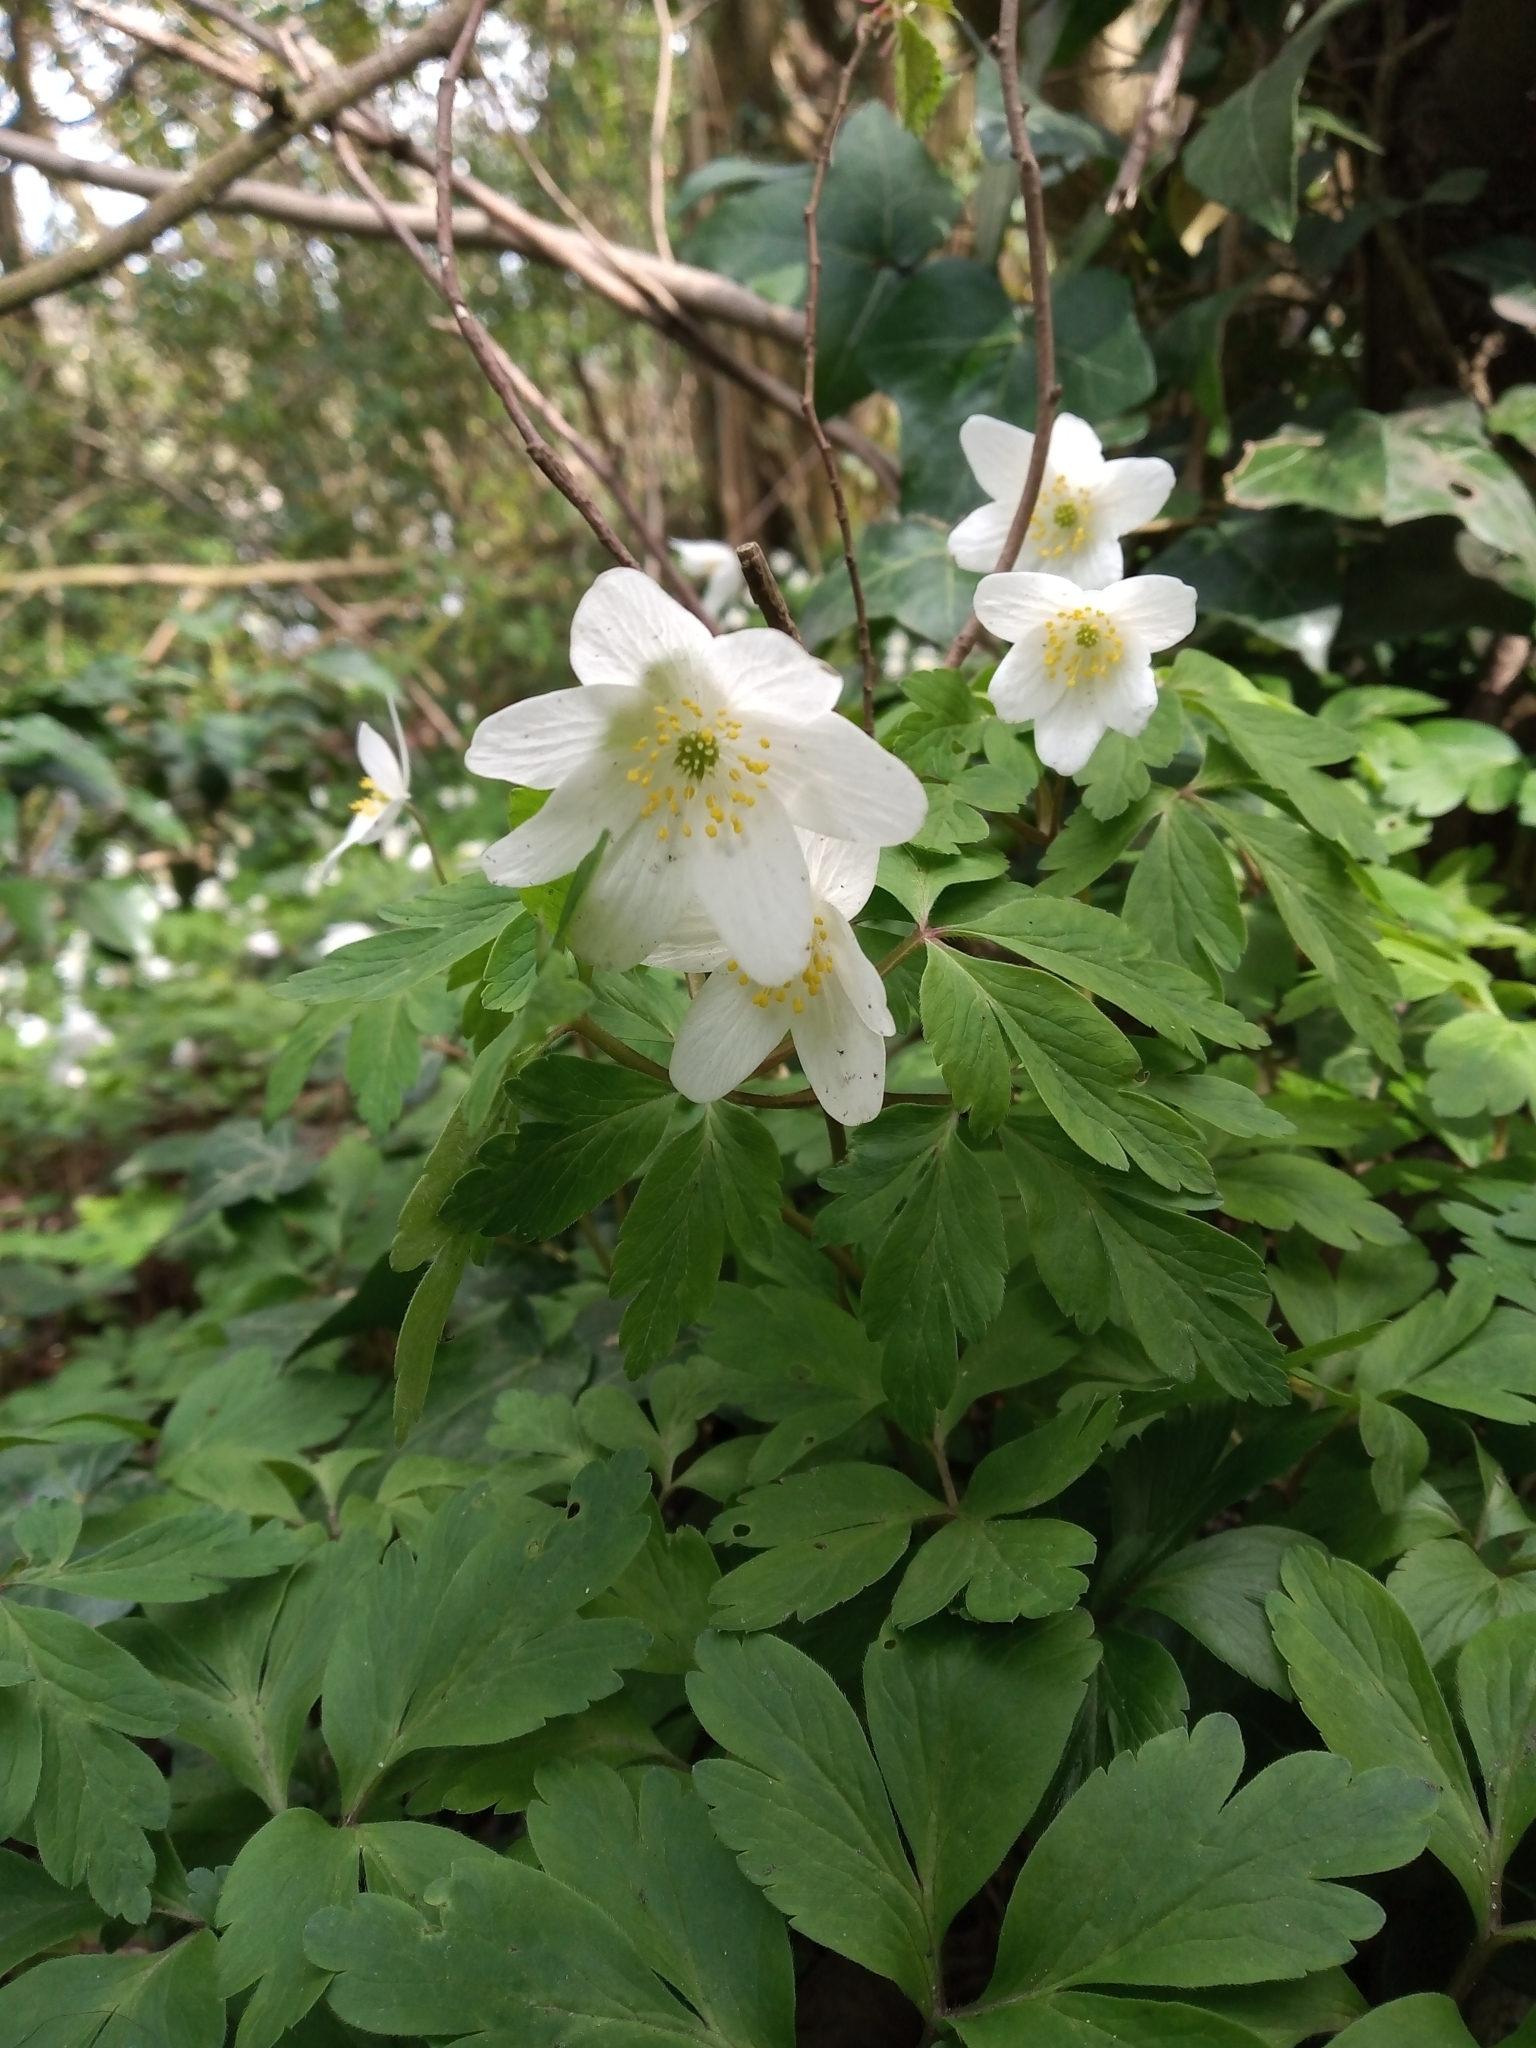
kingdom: Plantae
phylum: Tracheophyta
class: Magnoliopsida
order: Ranunculales
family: Ranunculaceae
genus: Anemone
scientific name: Anemone nemorosa
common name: Wood anemone
